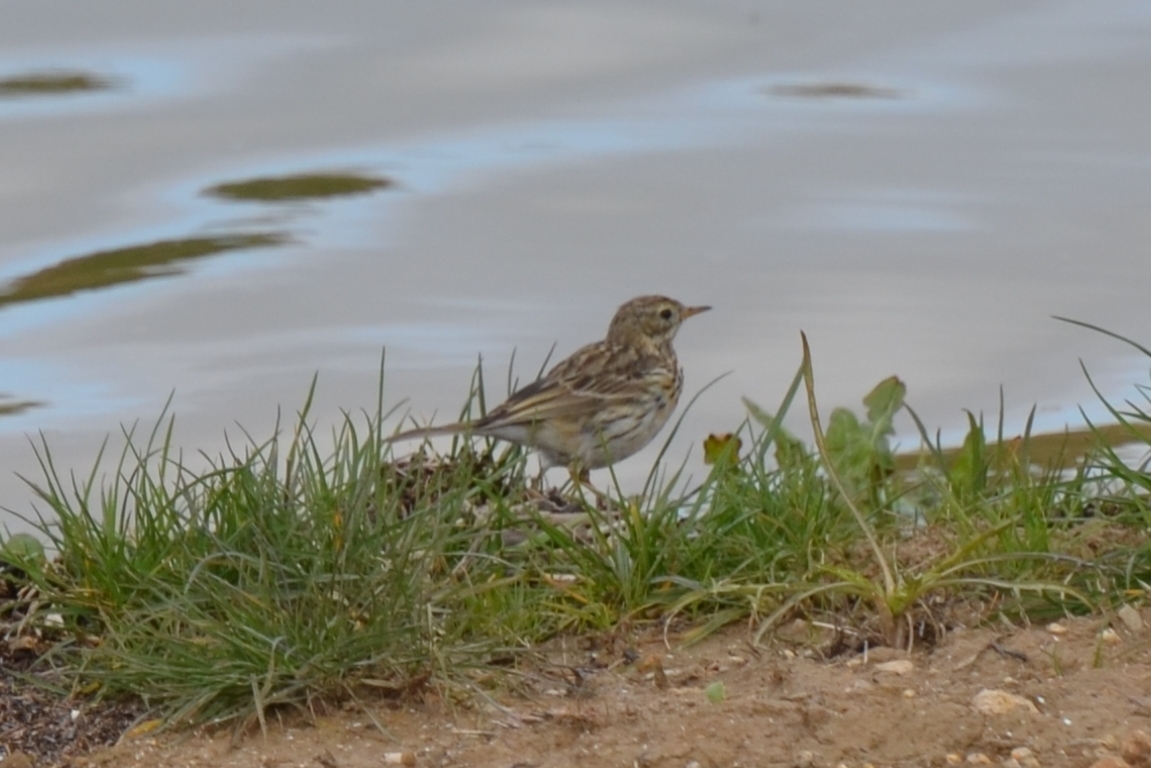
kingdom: Animalia
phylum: Chordata
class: Aves
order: Passeriformes
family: Motacillidae
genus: Anthus
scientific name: Anthus pratensis
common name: Meadow pipit
